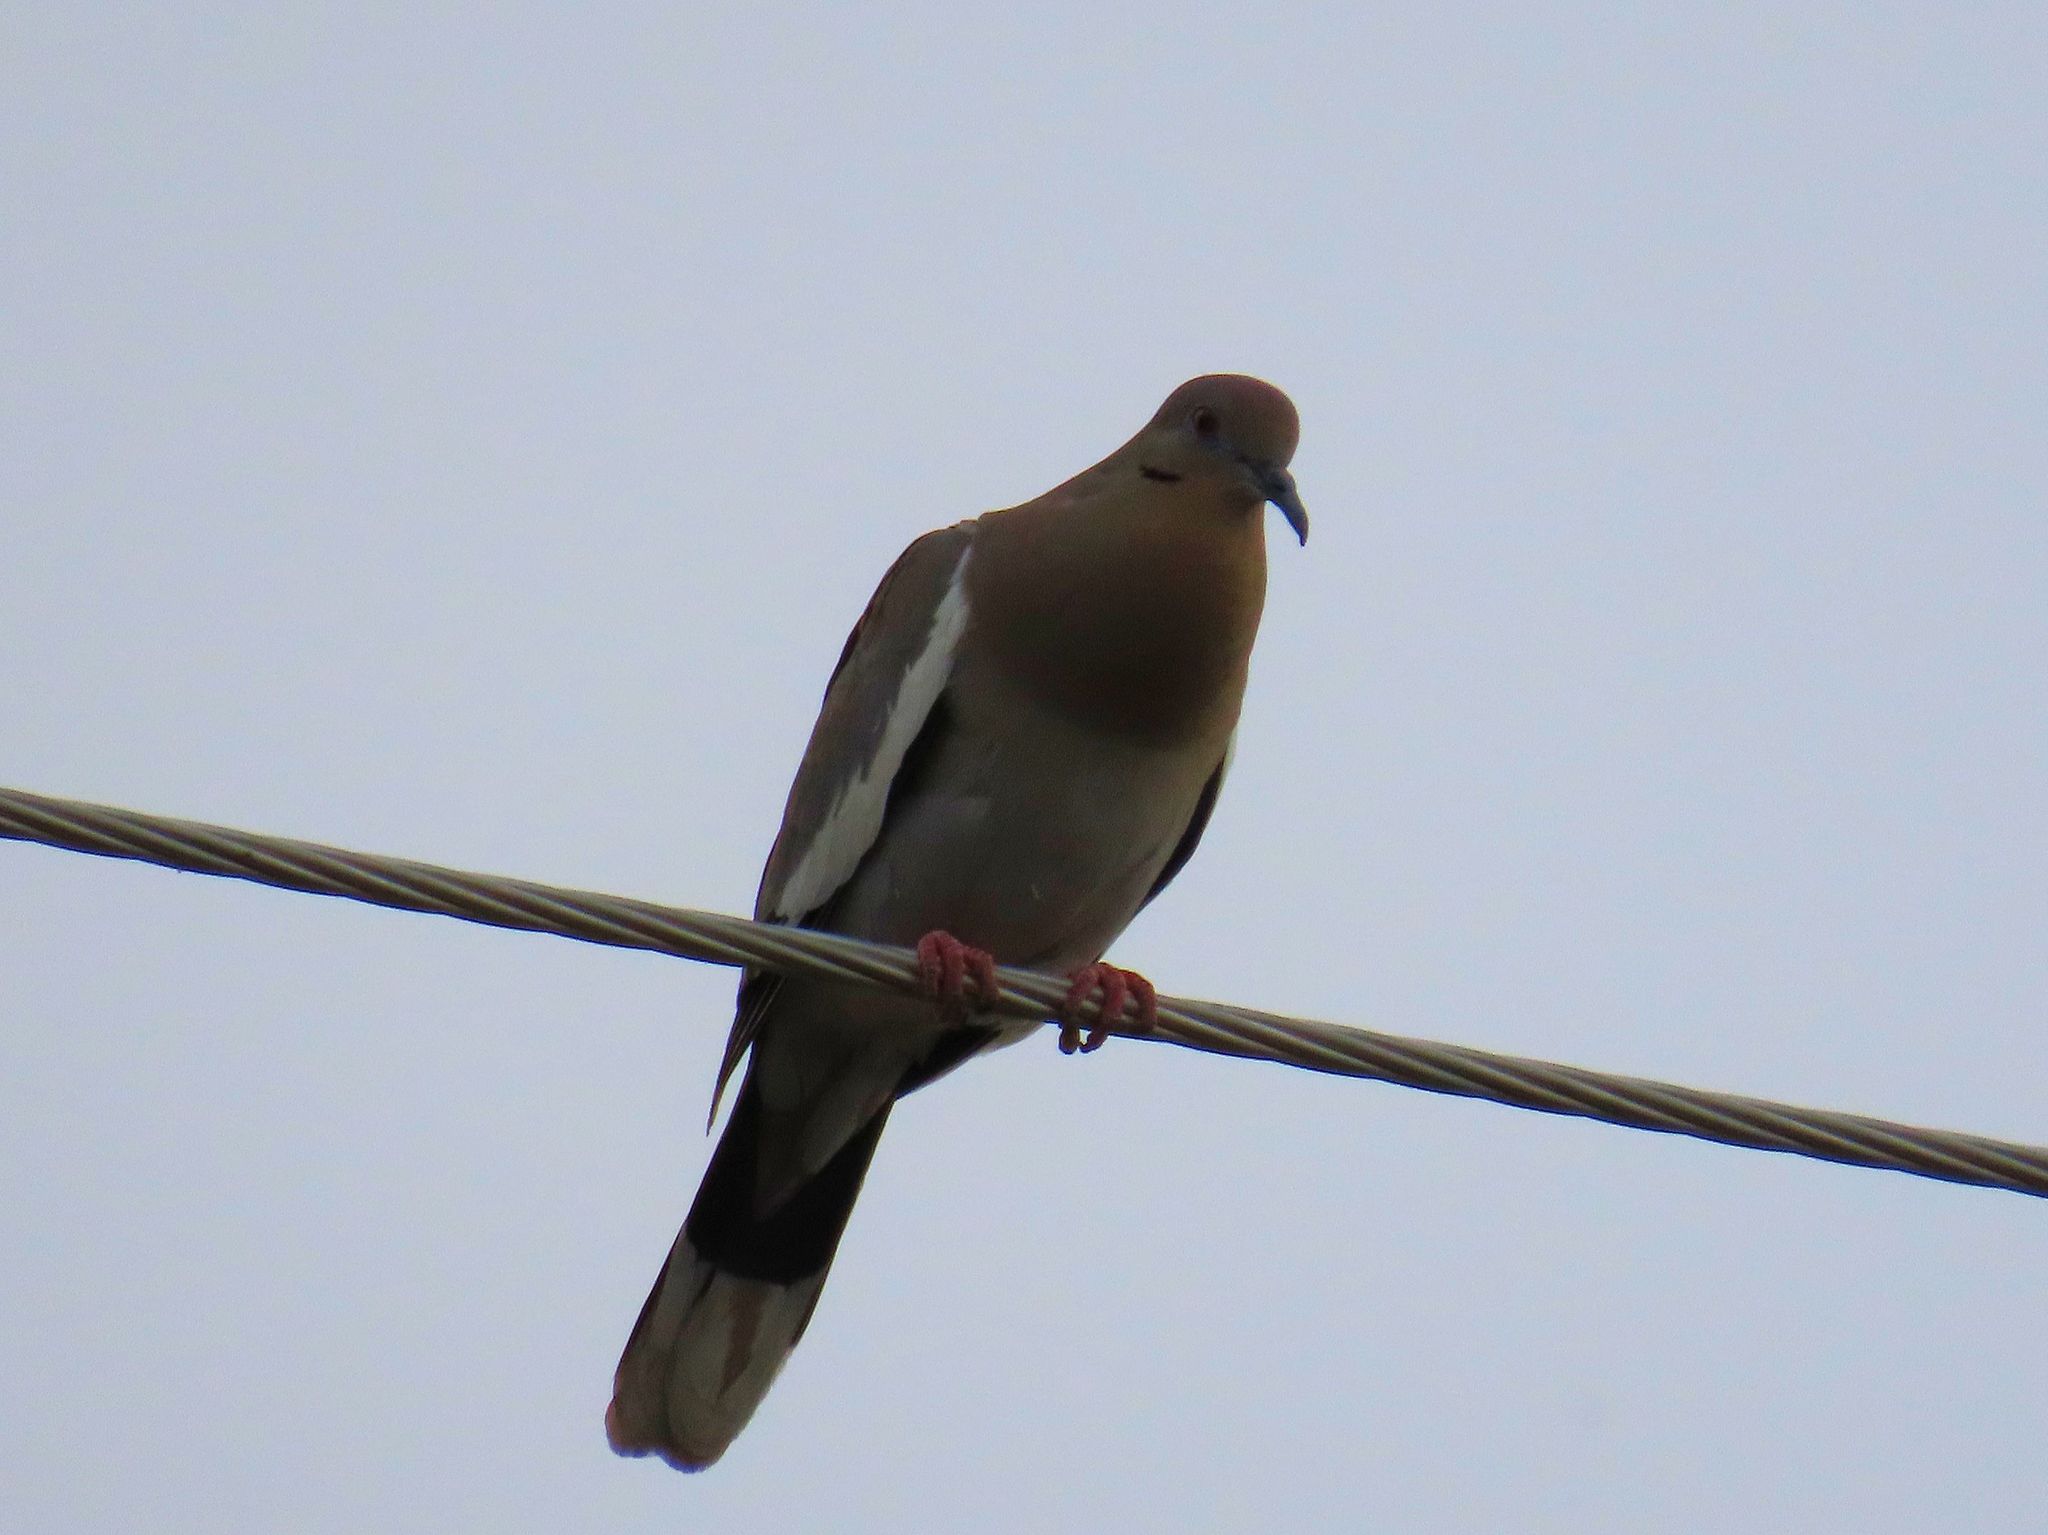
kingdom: Animalia
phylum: Chordata
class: Aves
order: Columbiformes
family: Columbidae
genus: Zenaida
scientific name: Zenaida asiatica
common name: White-winged dove
